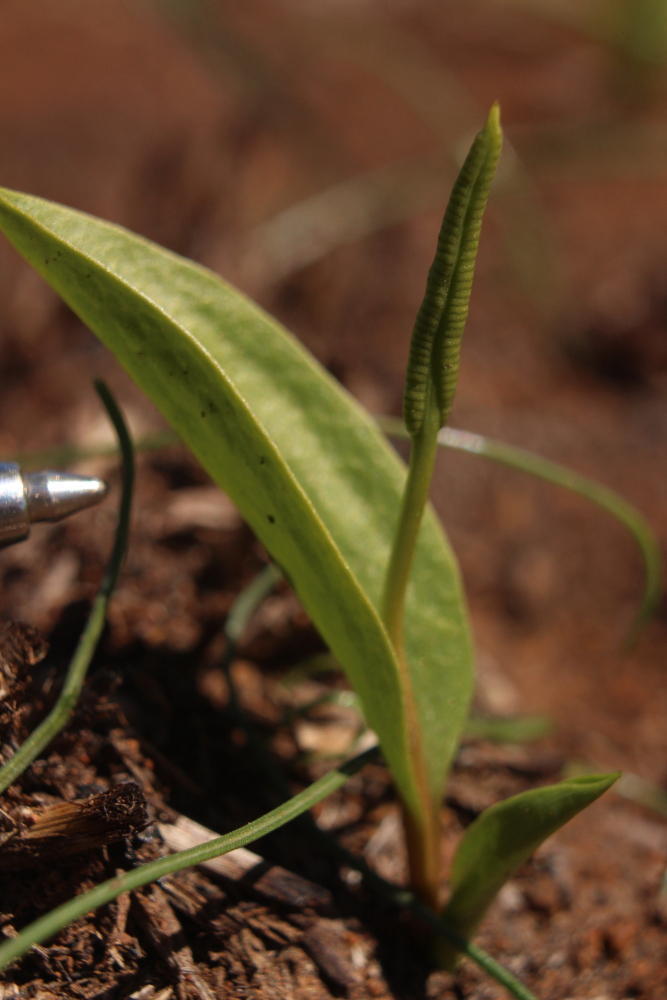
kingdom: Plantae
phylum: Tracheophyta
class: Polypodiopsida
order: Ophioglossales
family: Ophioglossaceae
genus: Ophioglossum
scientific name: Ophioglossum polyphyllum
